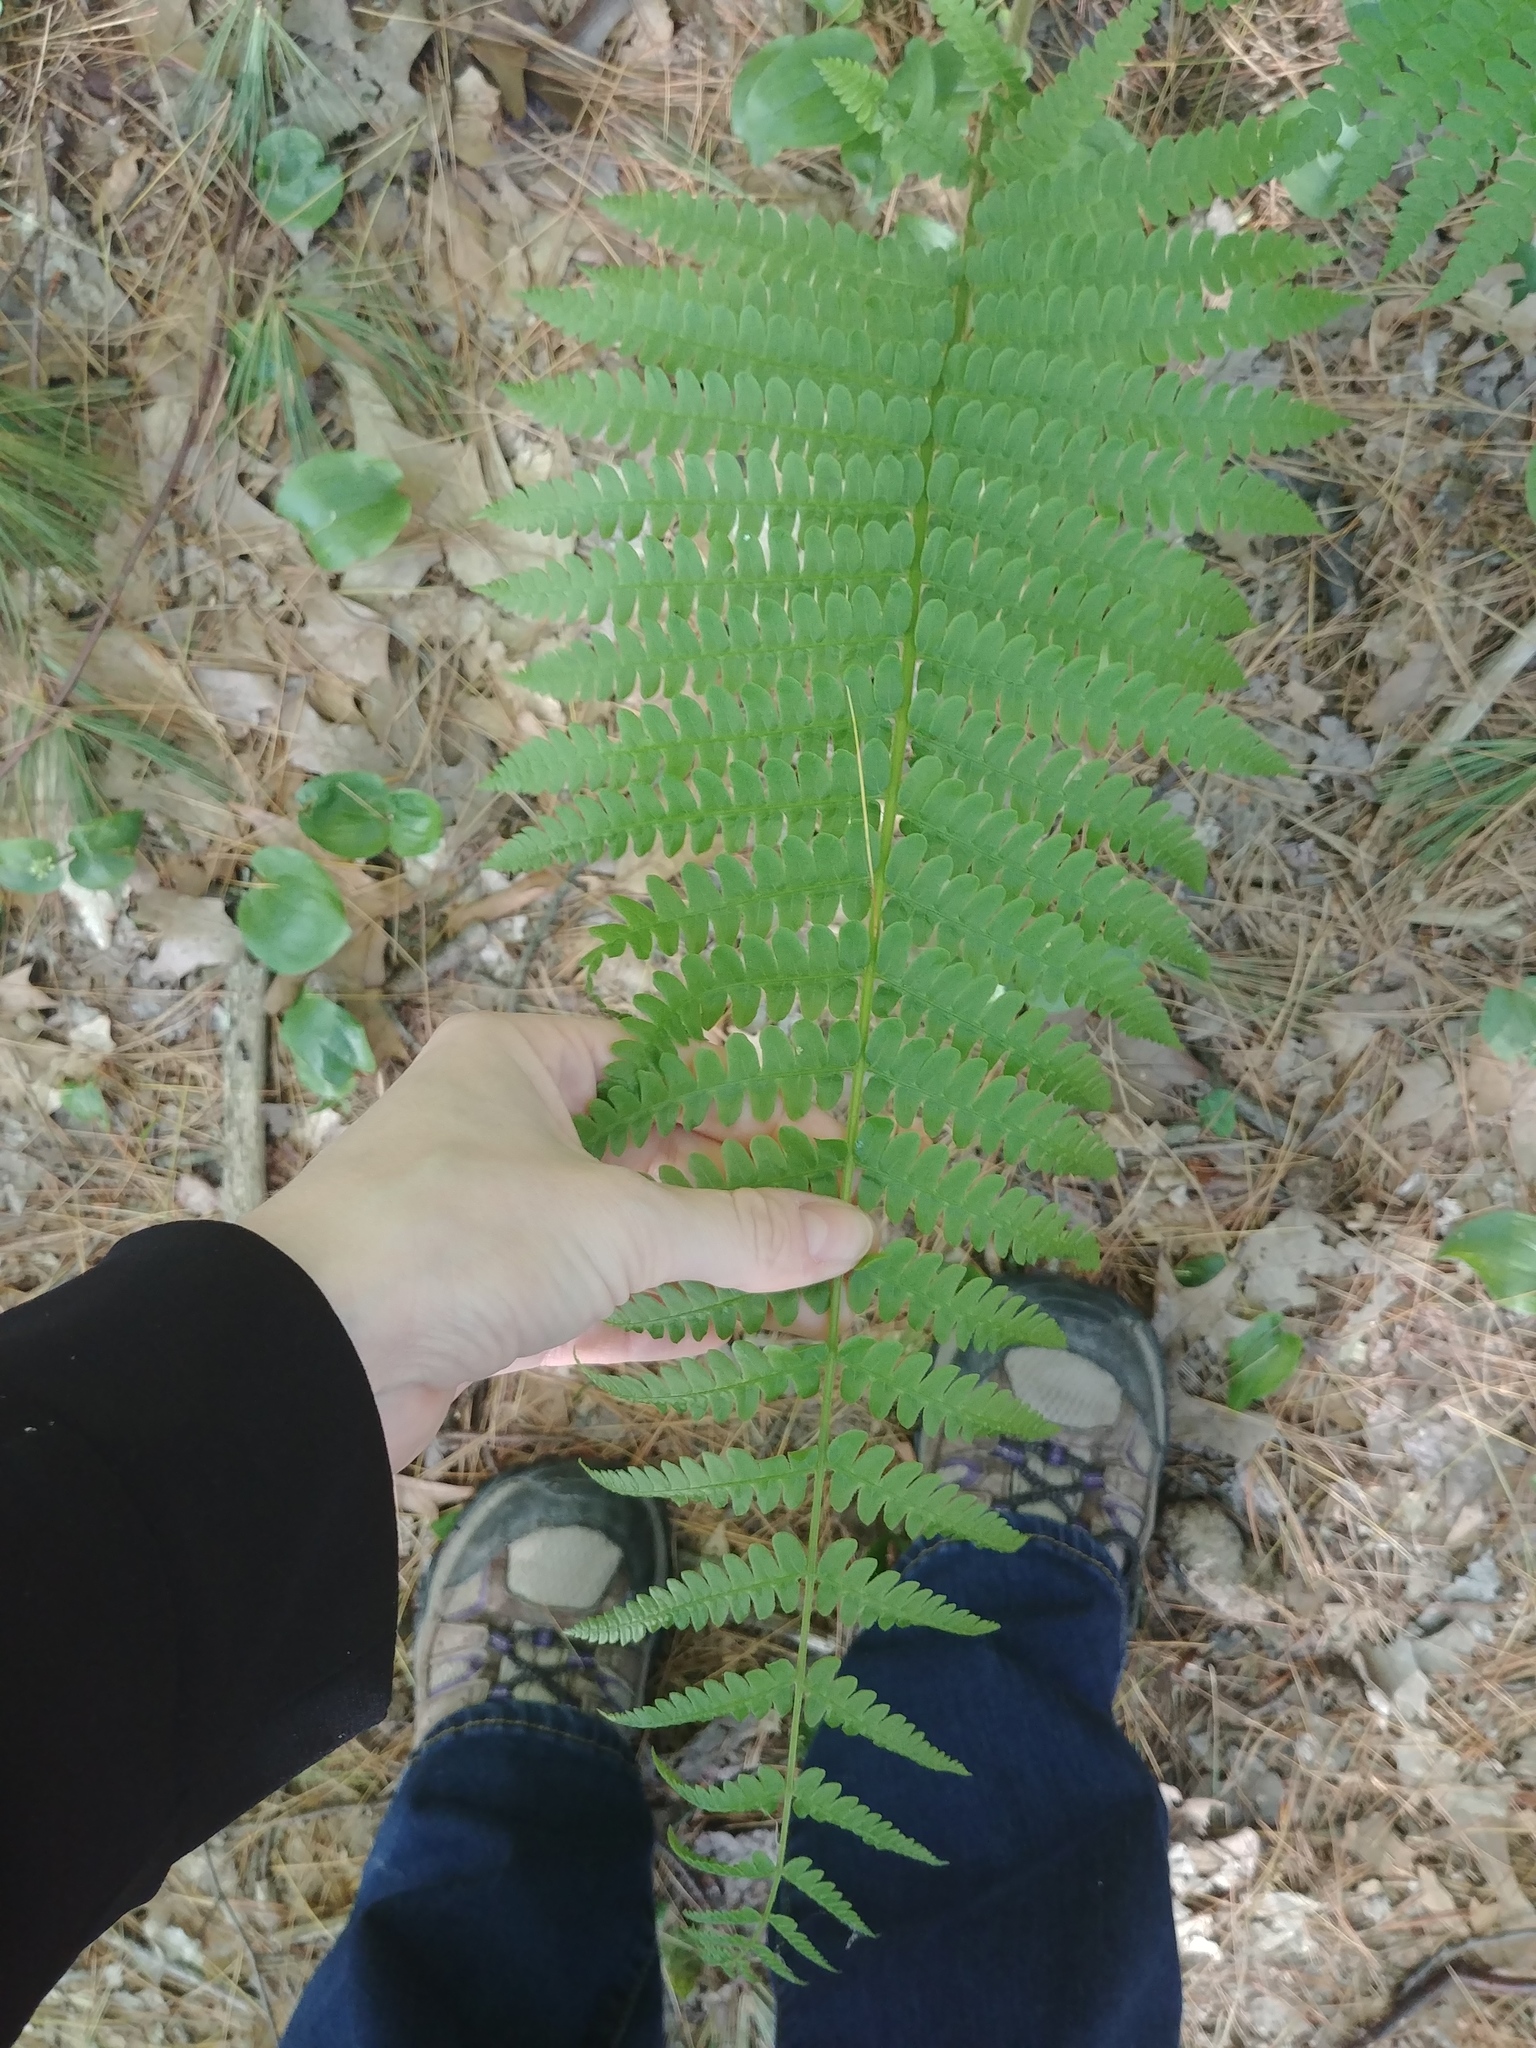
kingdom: Plantae
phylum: Tracheophyta
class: Polypodiopsida
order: Osmundales
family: Osmundaceae
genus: Osmundastrum
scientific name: Osmundastrum cinnamomeum
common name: Cinnamon fern
